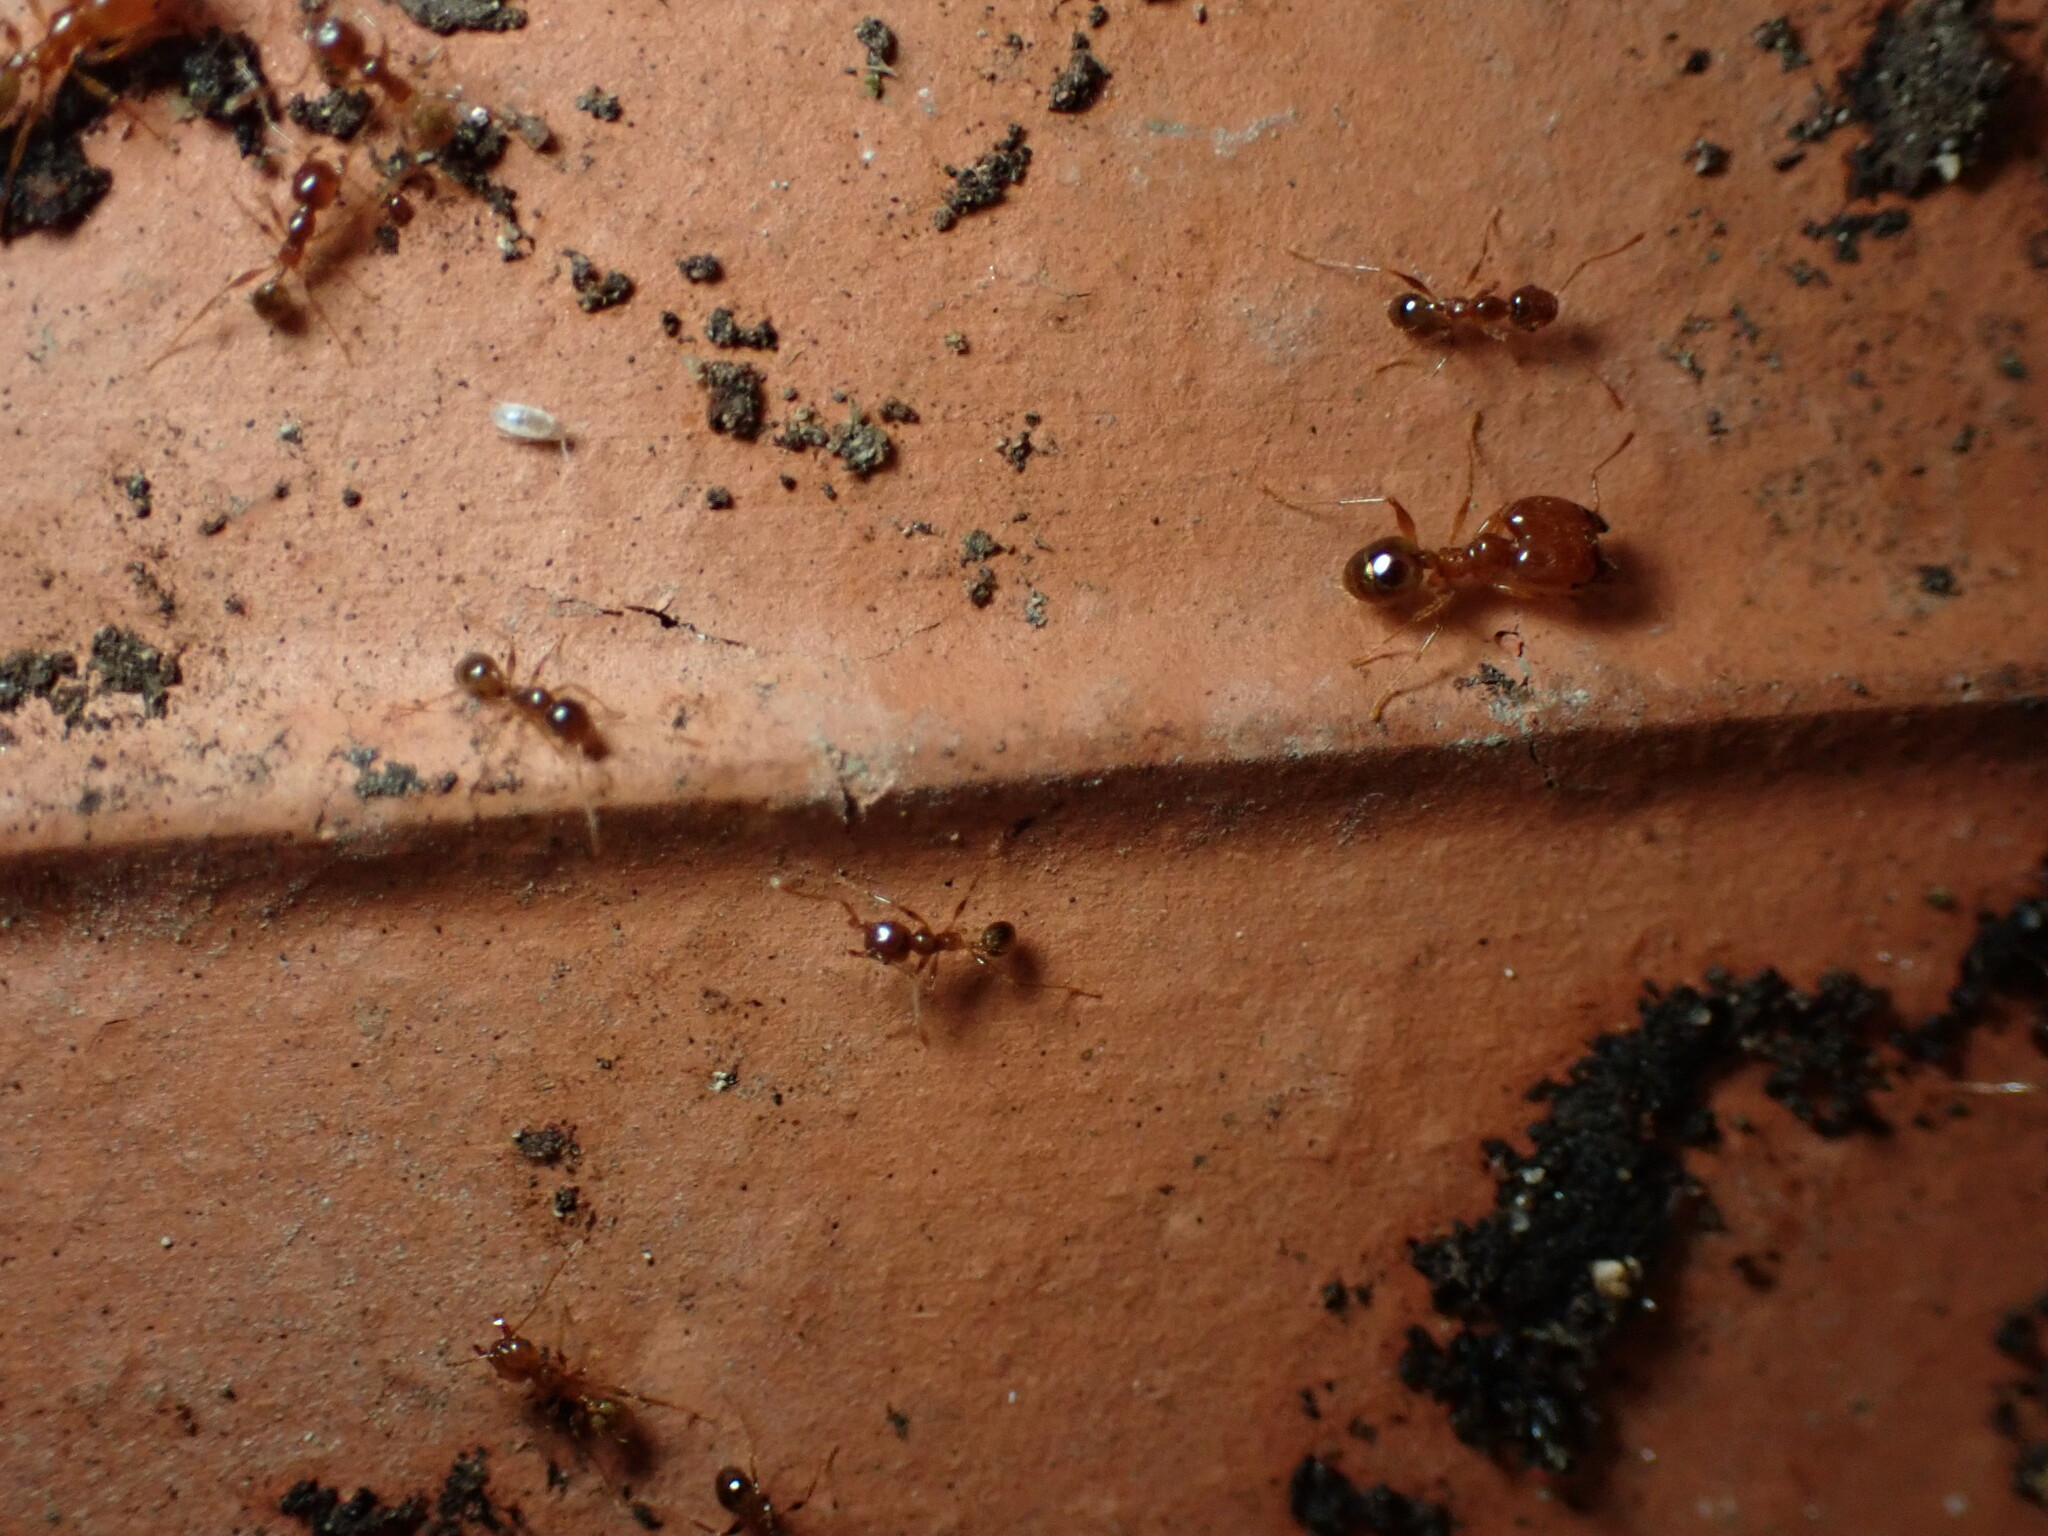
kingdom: Animalia
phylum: Arthropoda
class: Insecta
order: Hymenoptera
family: Formicidae
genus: Pheidole
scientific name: Pheidole pallidula
